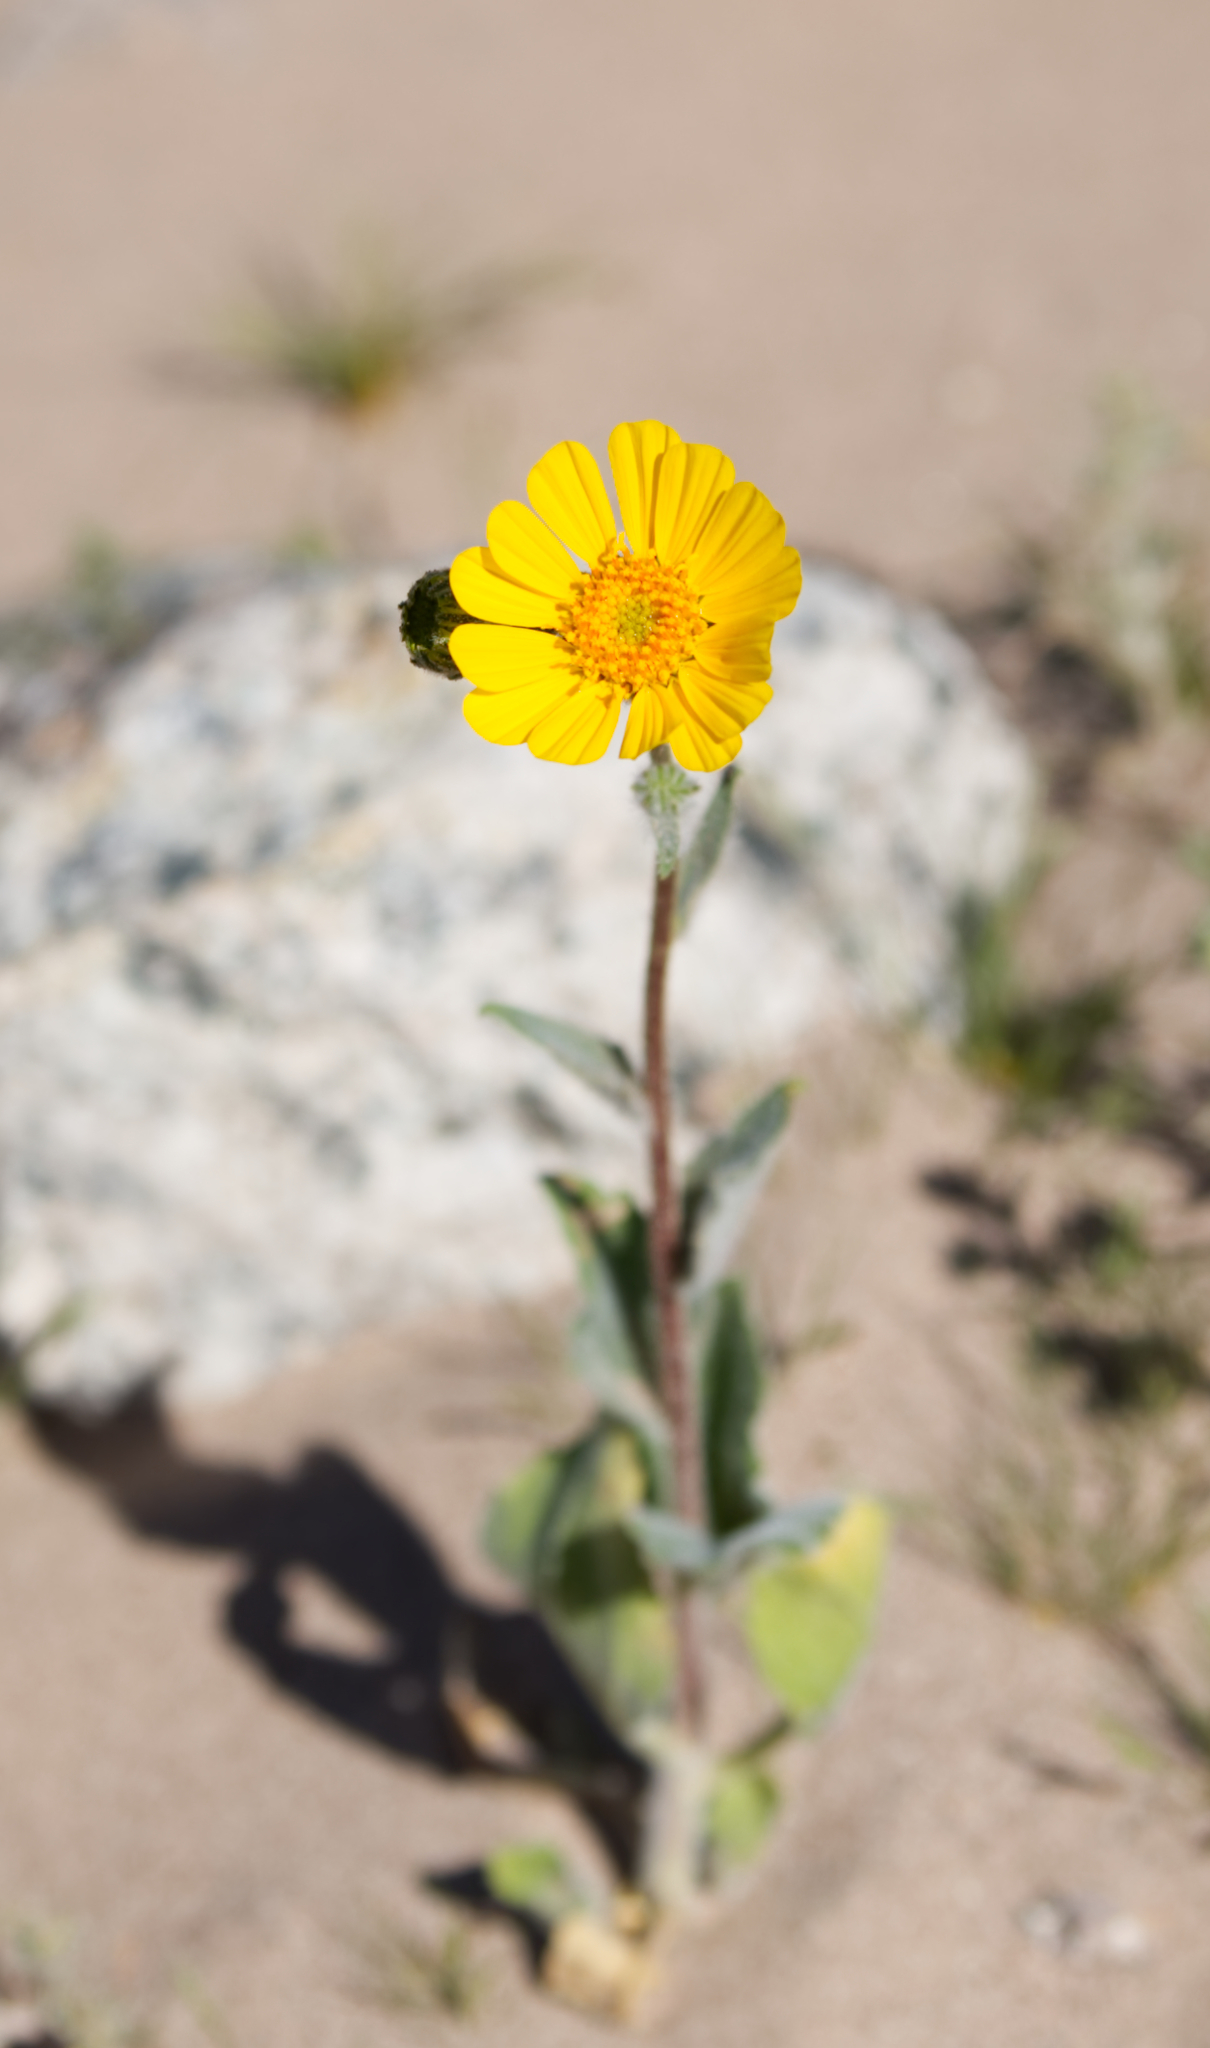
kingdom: Plantae
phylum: Tracheophyta
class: Magnoliopsida
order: Asterales
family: Asteraceae
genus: Geraea
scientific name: Geraea canescens
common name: Desert-gold
